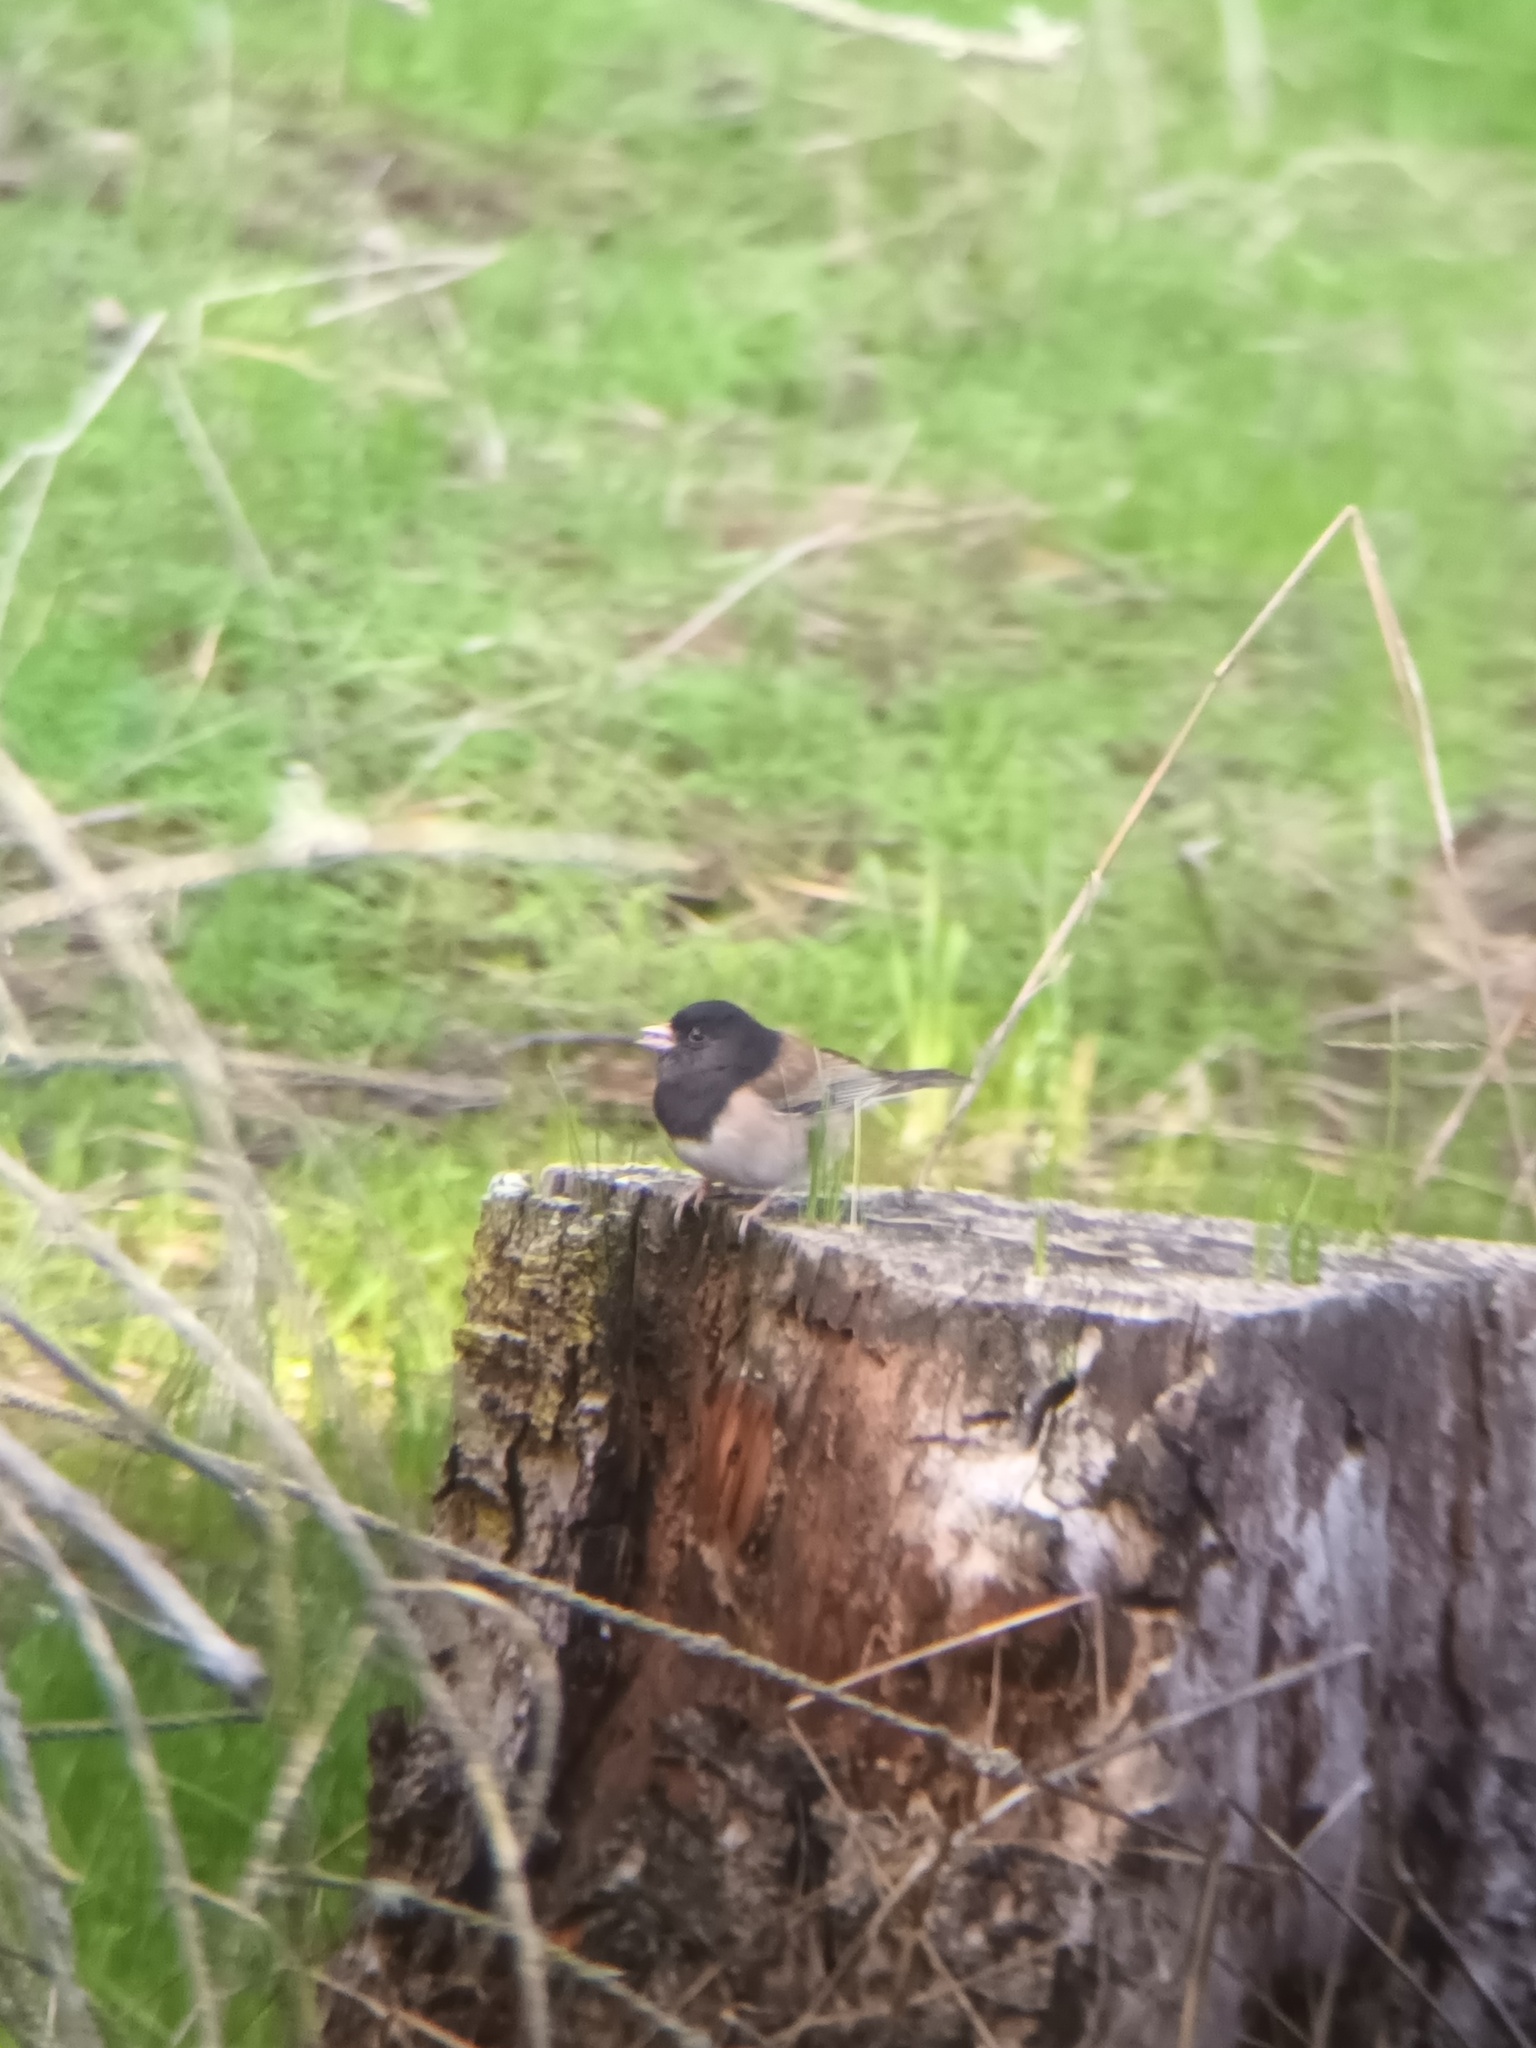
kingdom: Animalia
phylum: Chordata
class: Aves
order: Passeriformes
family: Passerellidae
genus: Junco
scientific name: Junco hyemalis
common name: Dark-eyed junco
